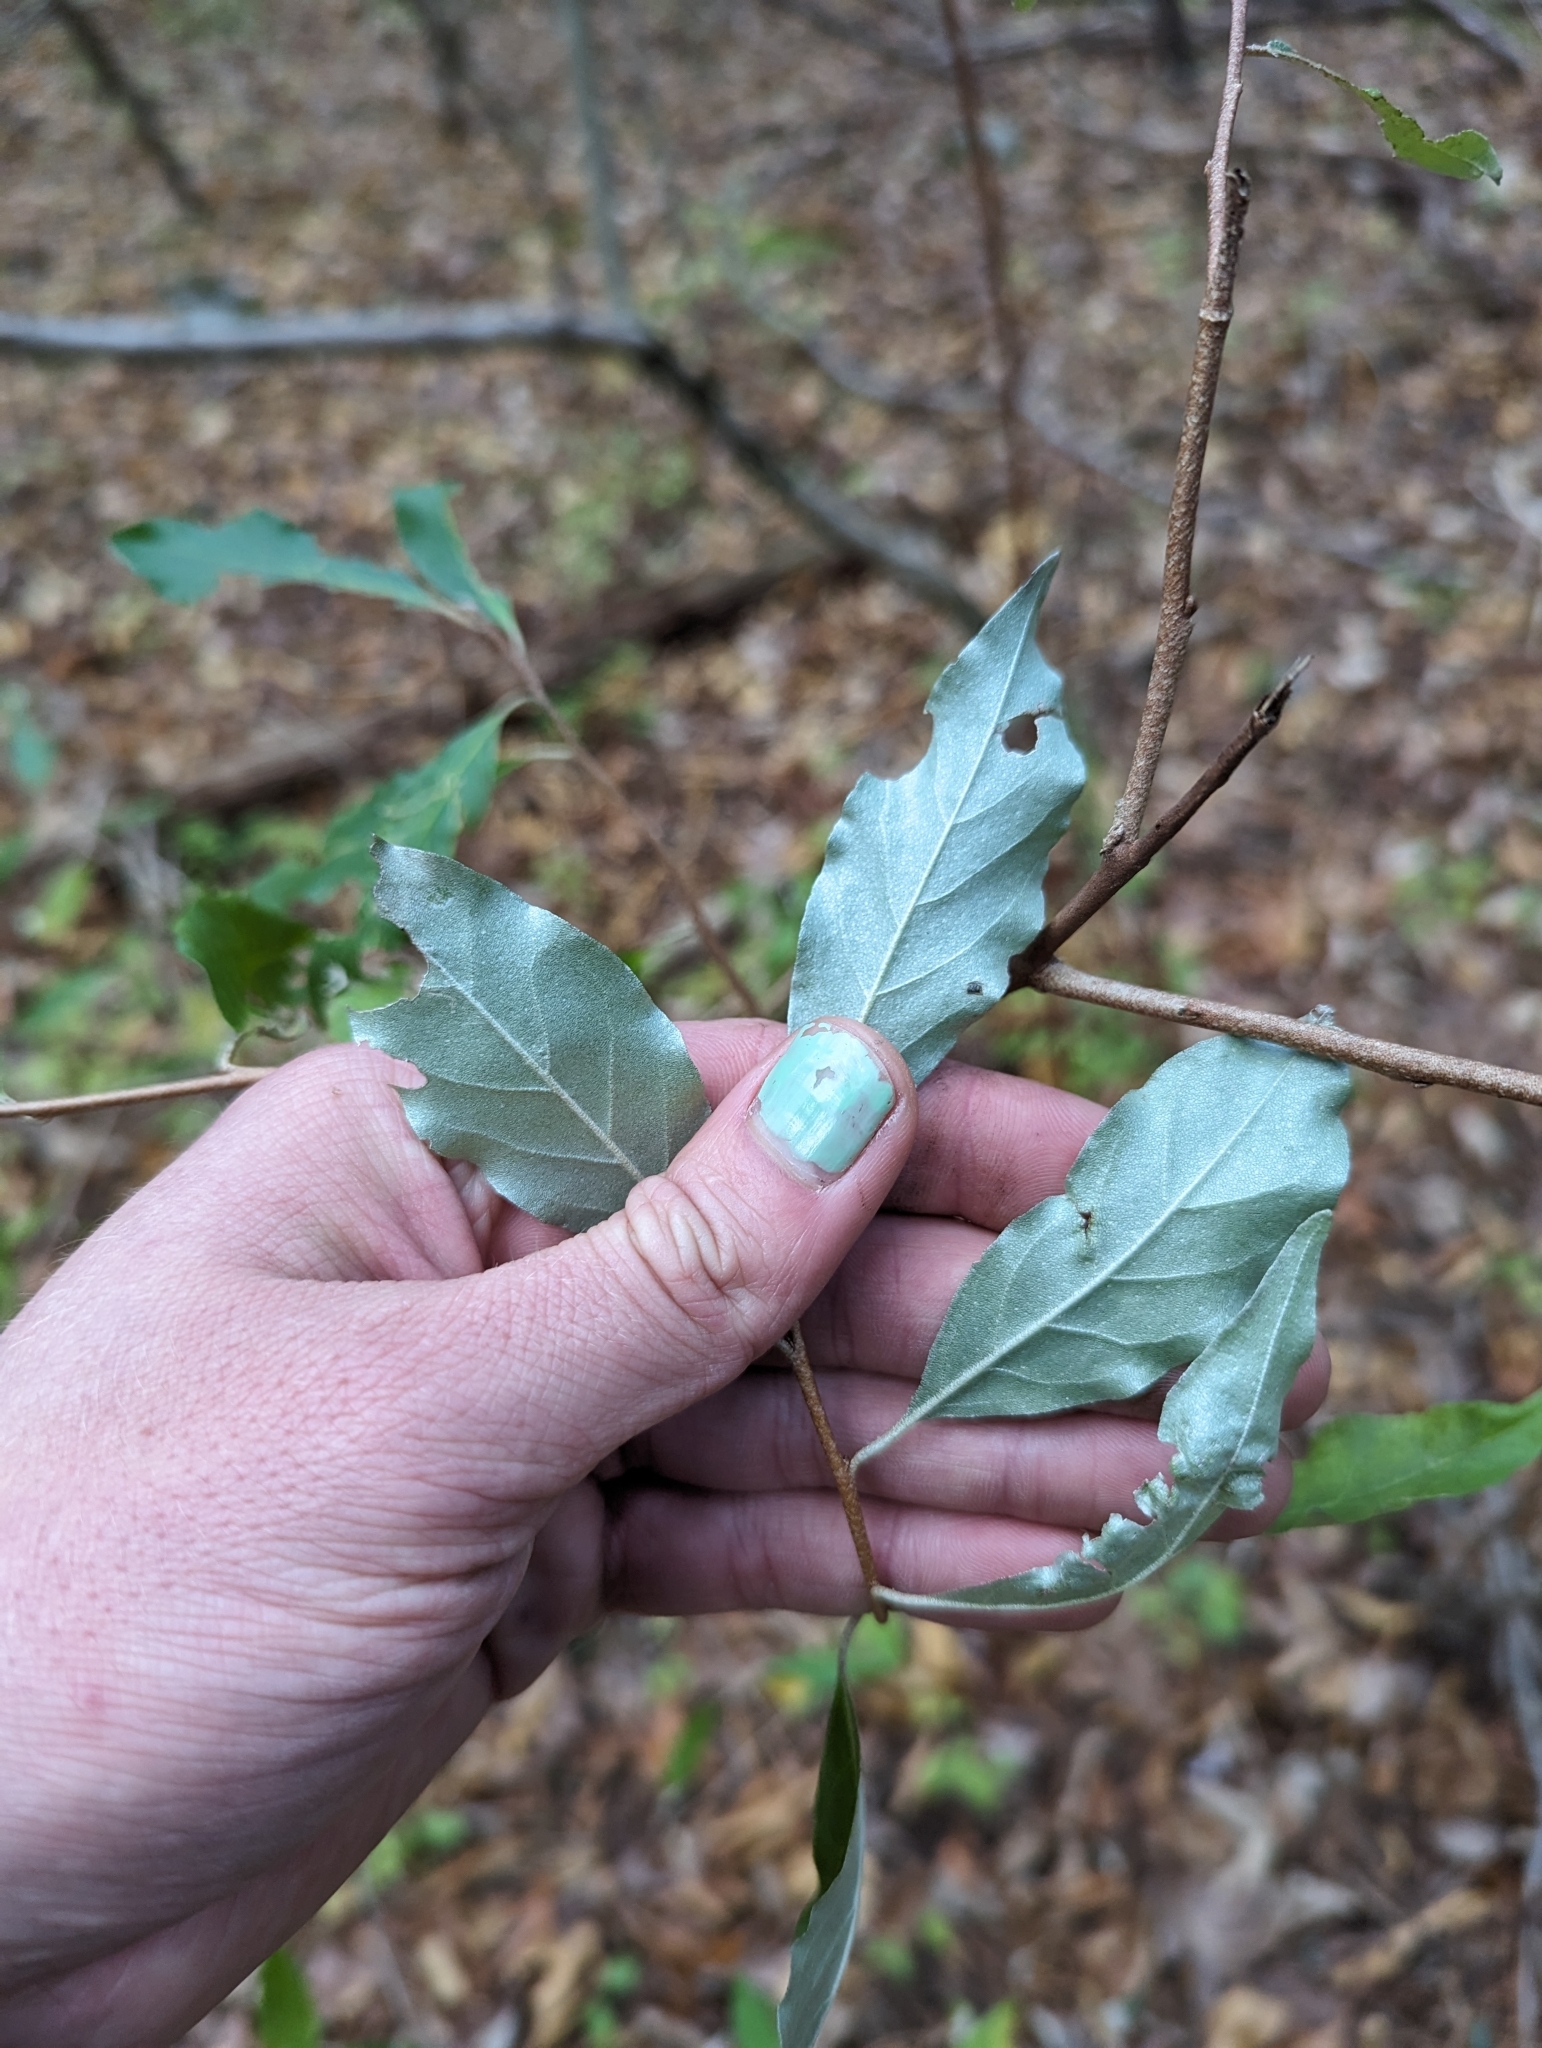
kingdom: Plantae
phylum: Tracheophyta
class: Magnoliopsida
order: Rosales
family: Elaeagnaceae
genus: Elaeagnus
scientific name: Elaeagnus umbellata
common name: Autumn olive
